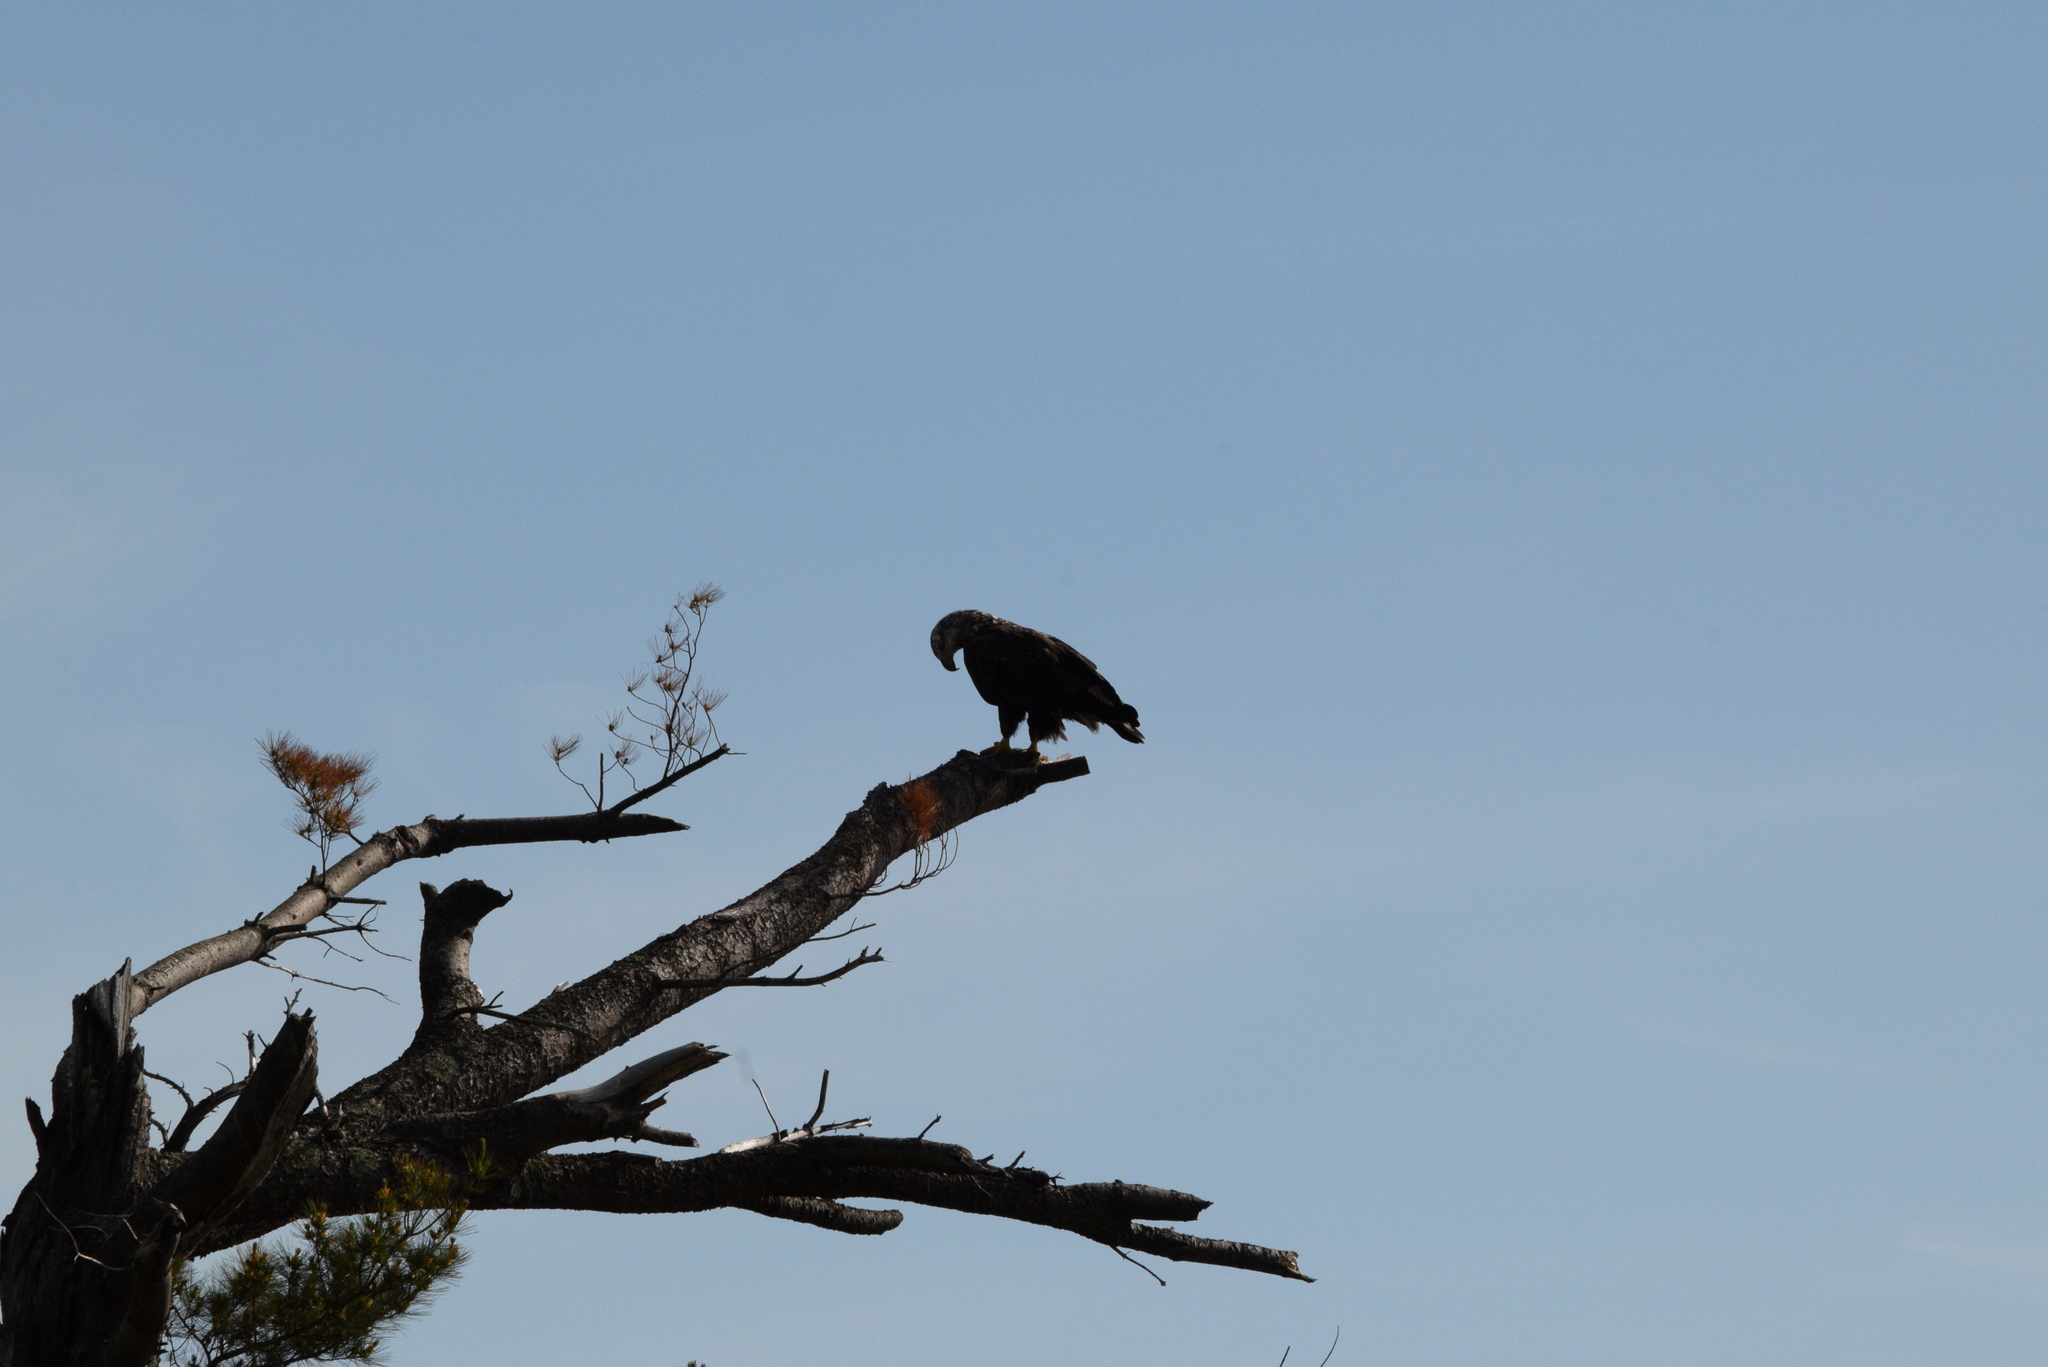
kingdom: Animalia
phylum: Chordata
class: Aves
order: Accipitriformes
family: Accipitridae
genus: Haliaeetus
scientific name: Haliaeetus leucocephalus
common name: Bald eagle
